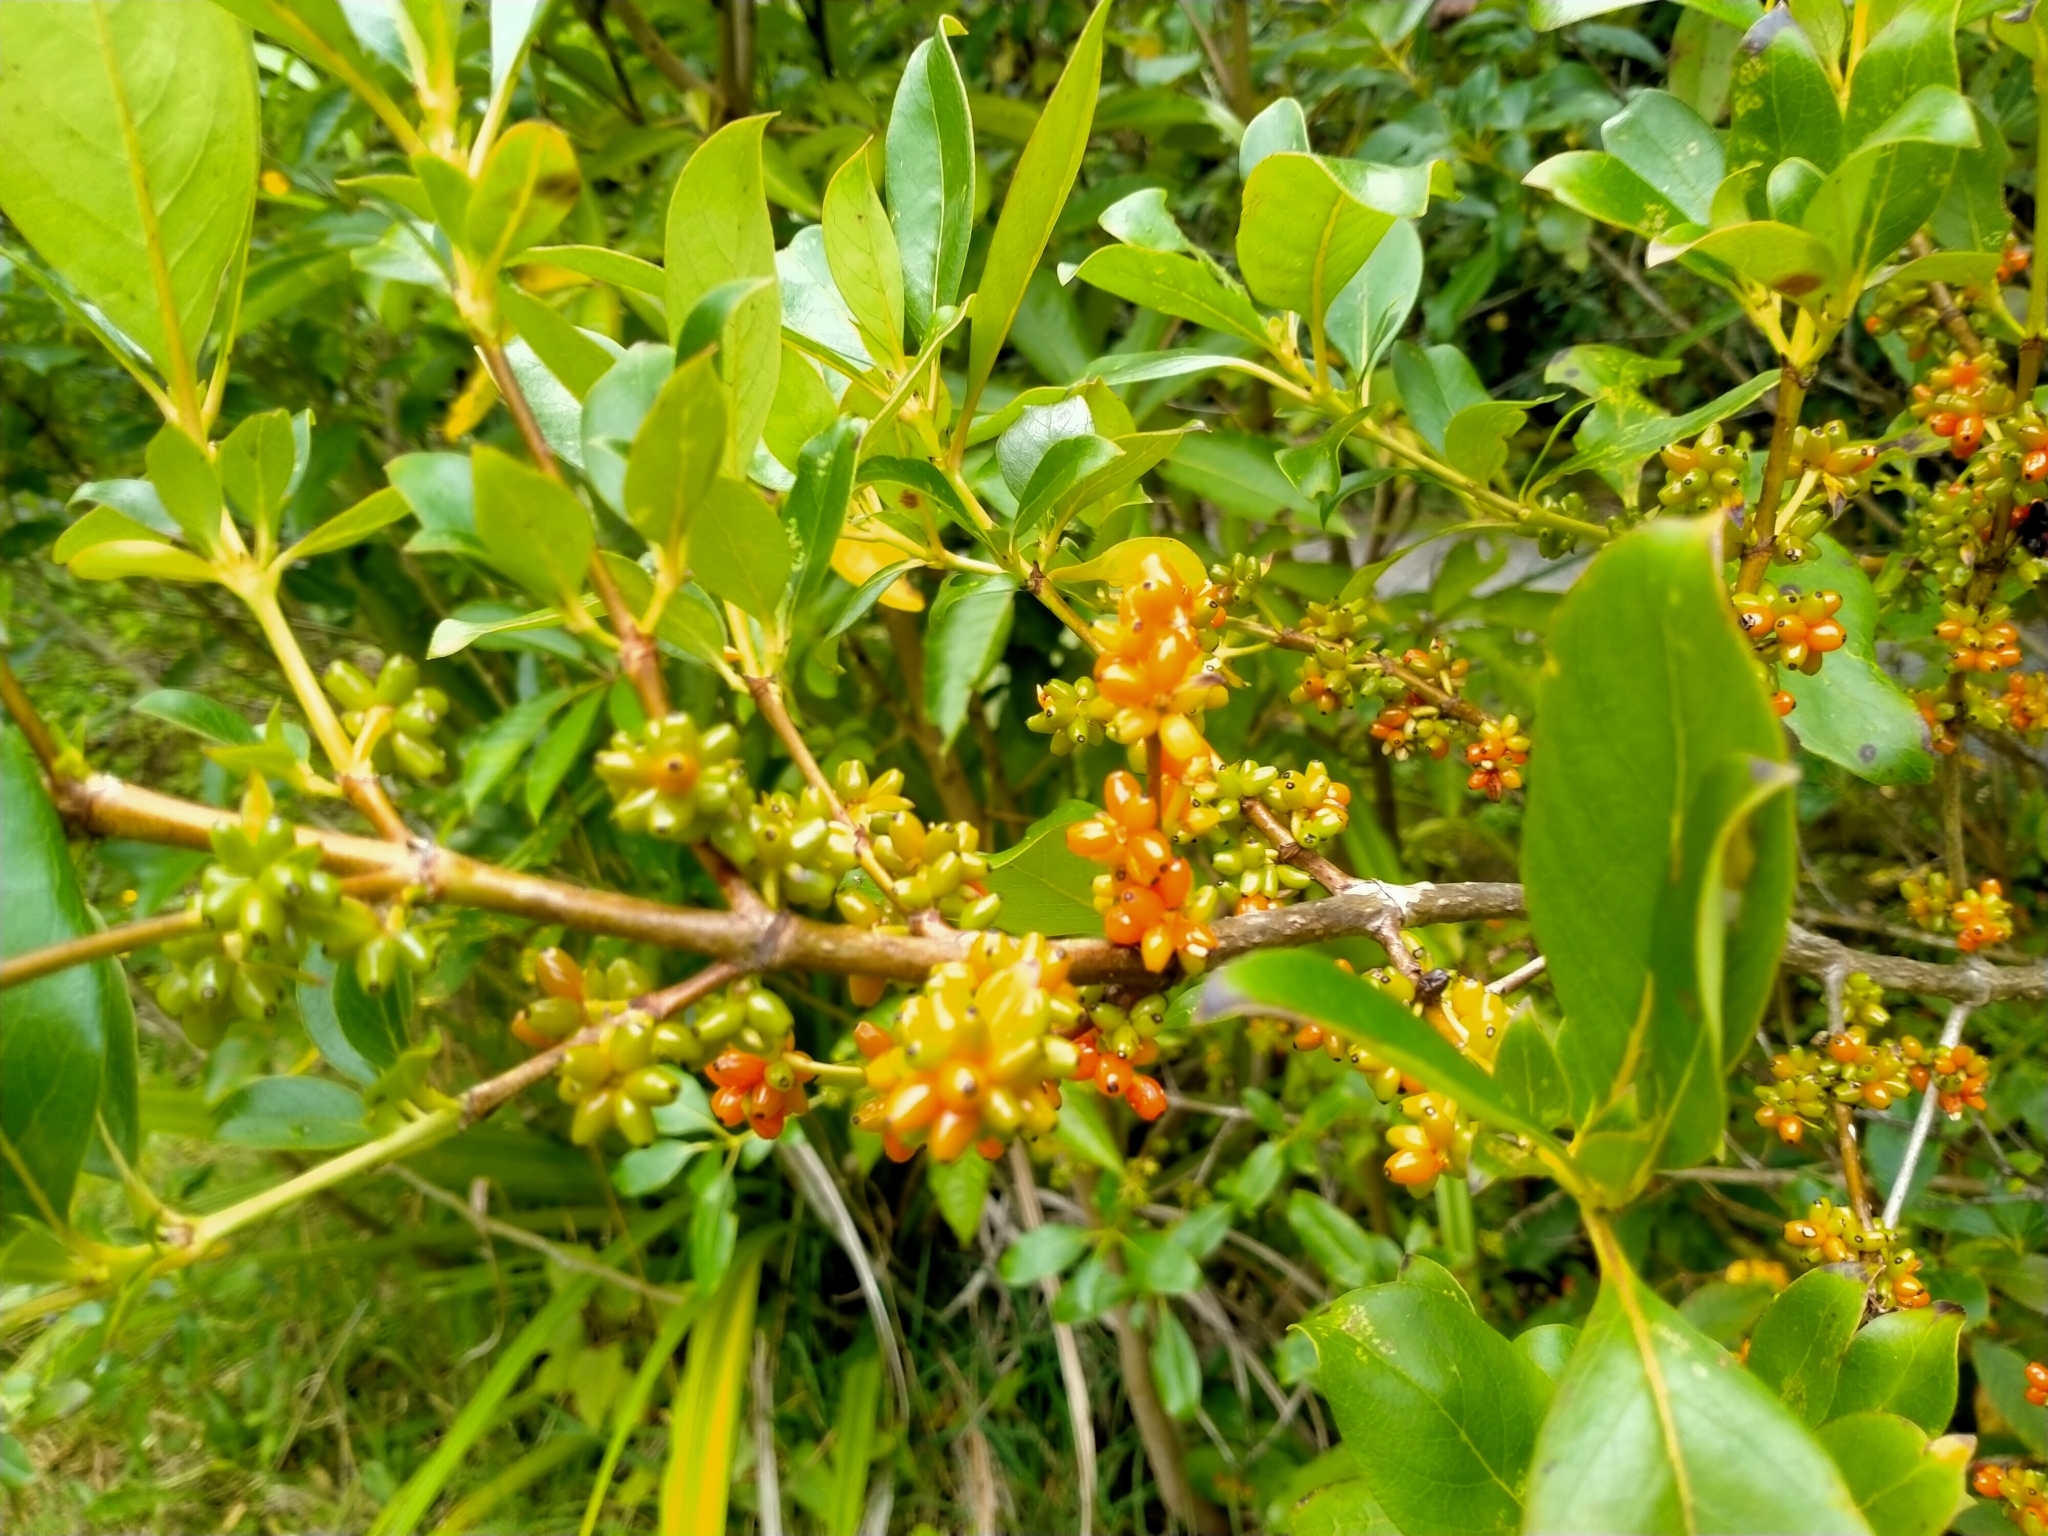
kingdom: Plantae
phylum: Tracheophyta
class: Magnoliopsida
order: Gentianales
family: Rubiaceae
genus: Coprosma
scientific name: Coprosma robusta
